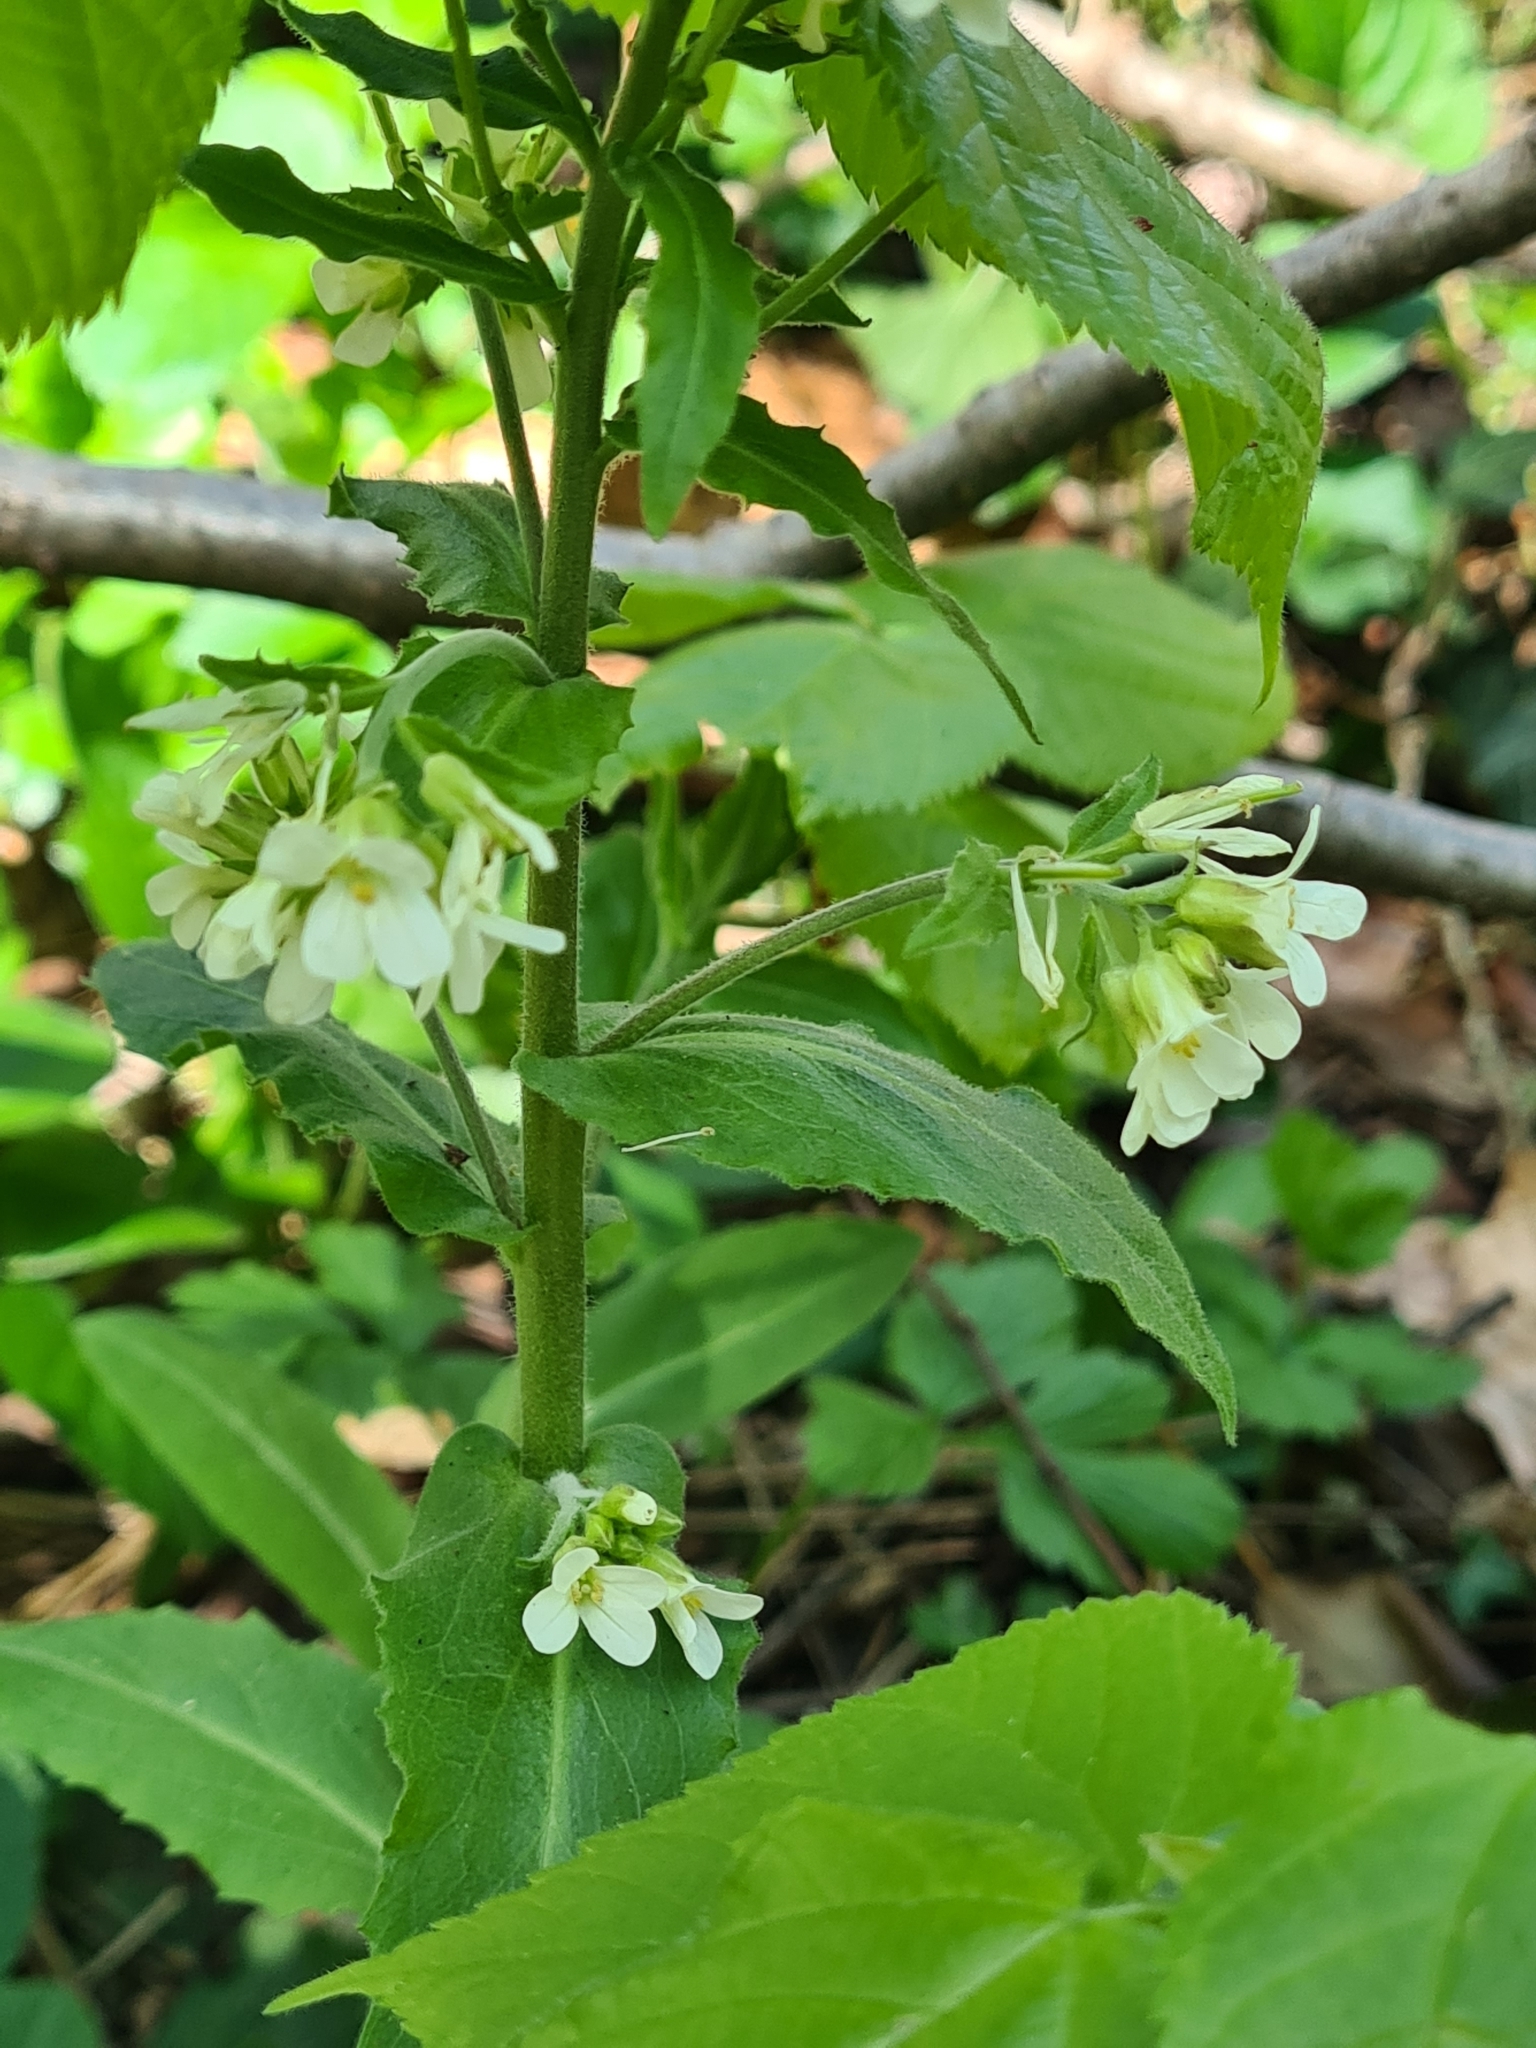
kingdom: Plantae
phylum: Tracheophyta
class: Magnoliopsida
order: Brassicales
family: Brassicaceae
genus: Pseudoturritis
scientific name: Pseudoturritis turrita
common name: Tower cress
